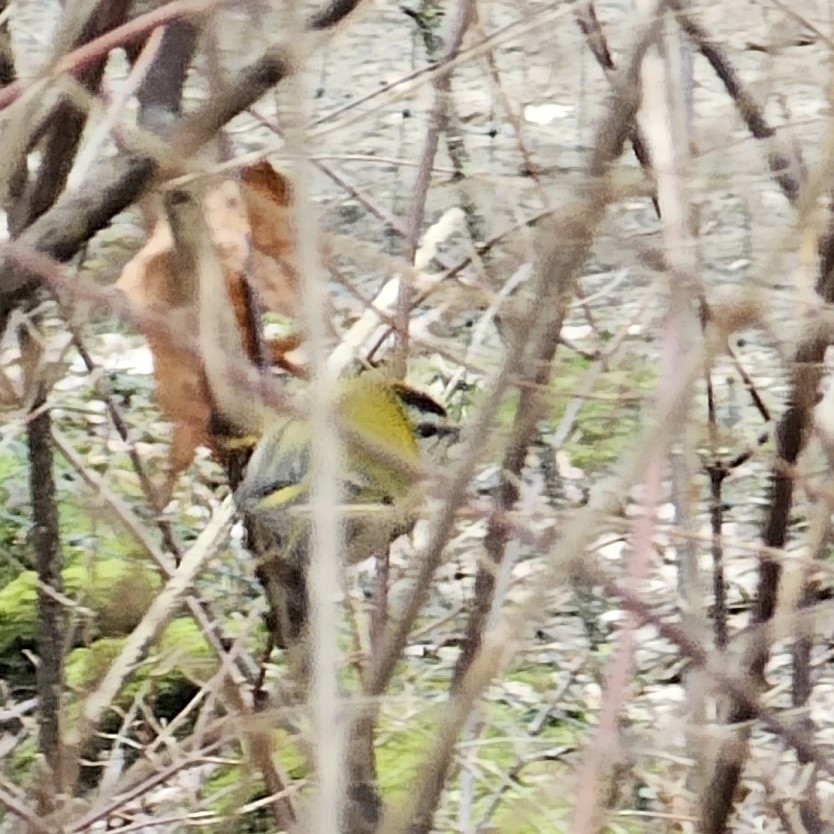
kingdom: Animalia
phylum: Chordata
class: Aves
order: Passeriformes
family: Regulidae
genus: Regulus
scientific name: Regulus ignicapilla
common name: Firecrest
